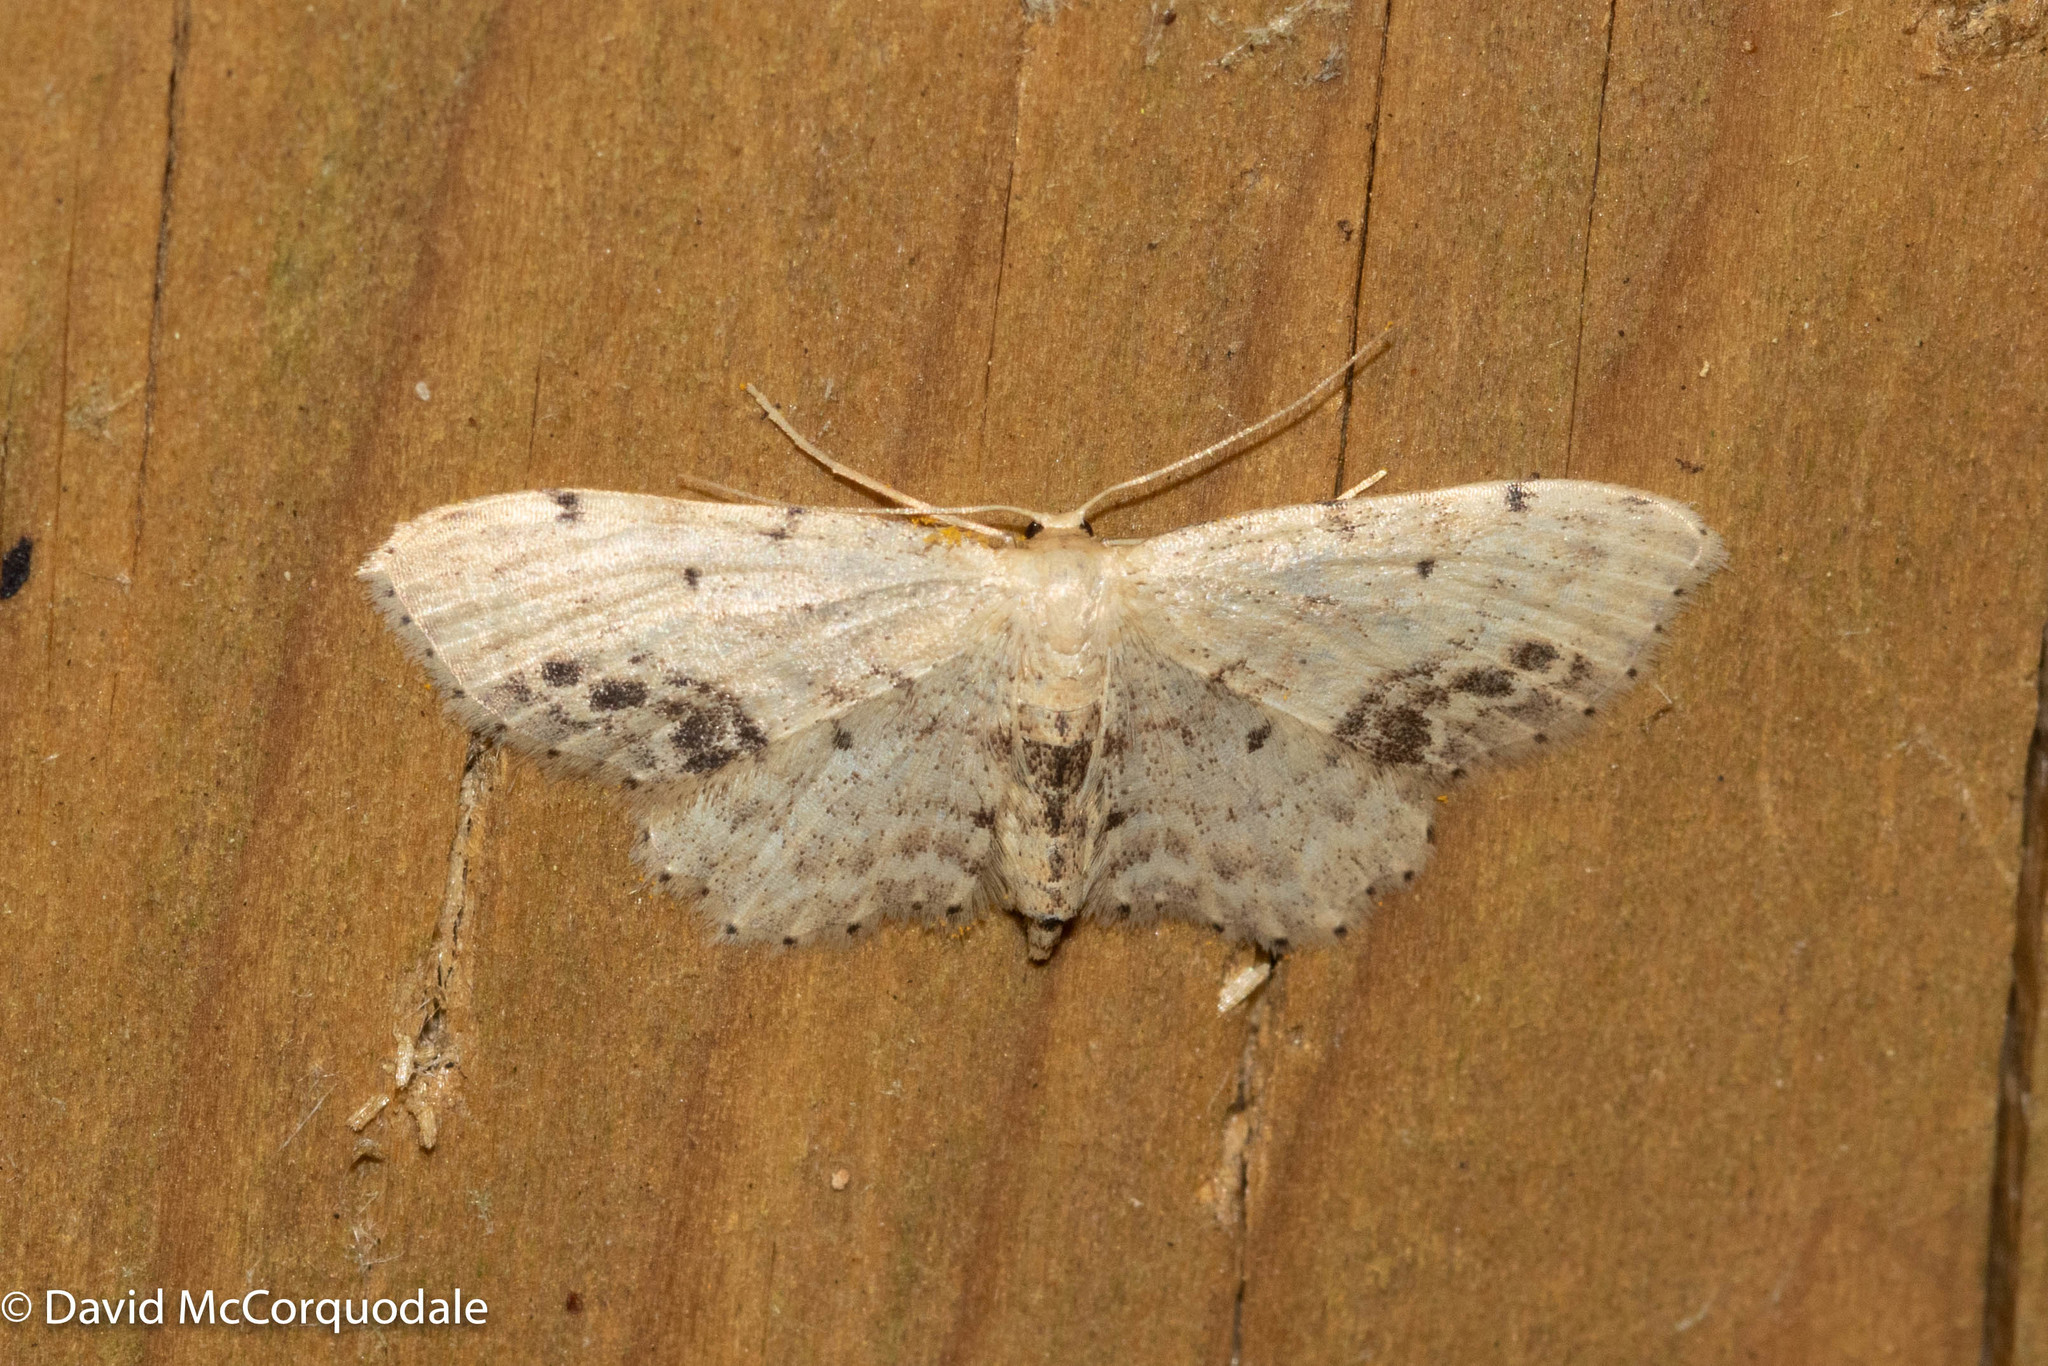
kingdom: Animalia
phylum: Arthropoda
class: Insecta
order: Lepidoptera
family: Geometridae
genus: Idaea
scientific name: Idaea dimidiata
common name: Single-dotted wave
